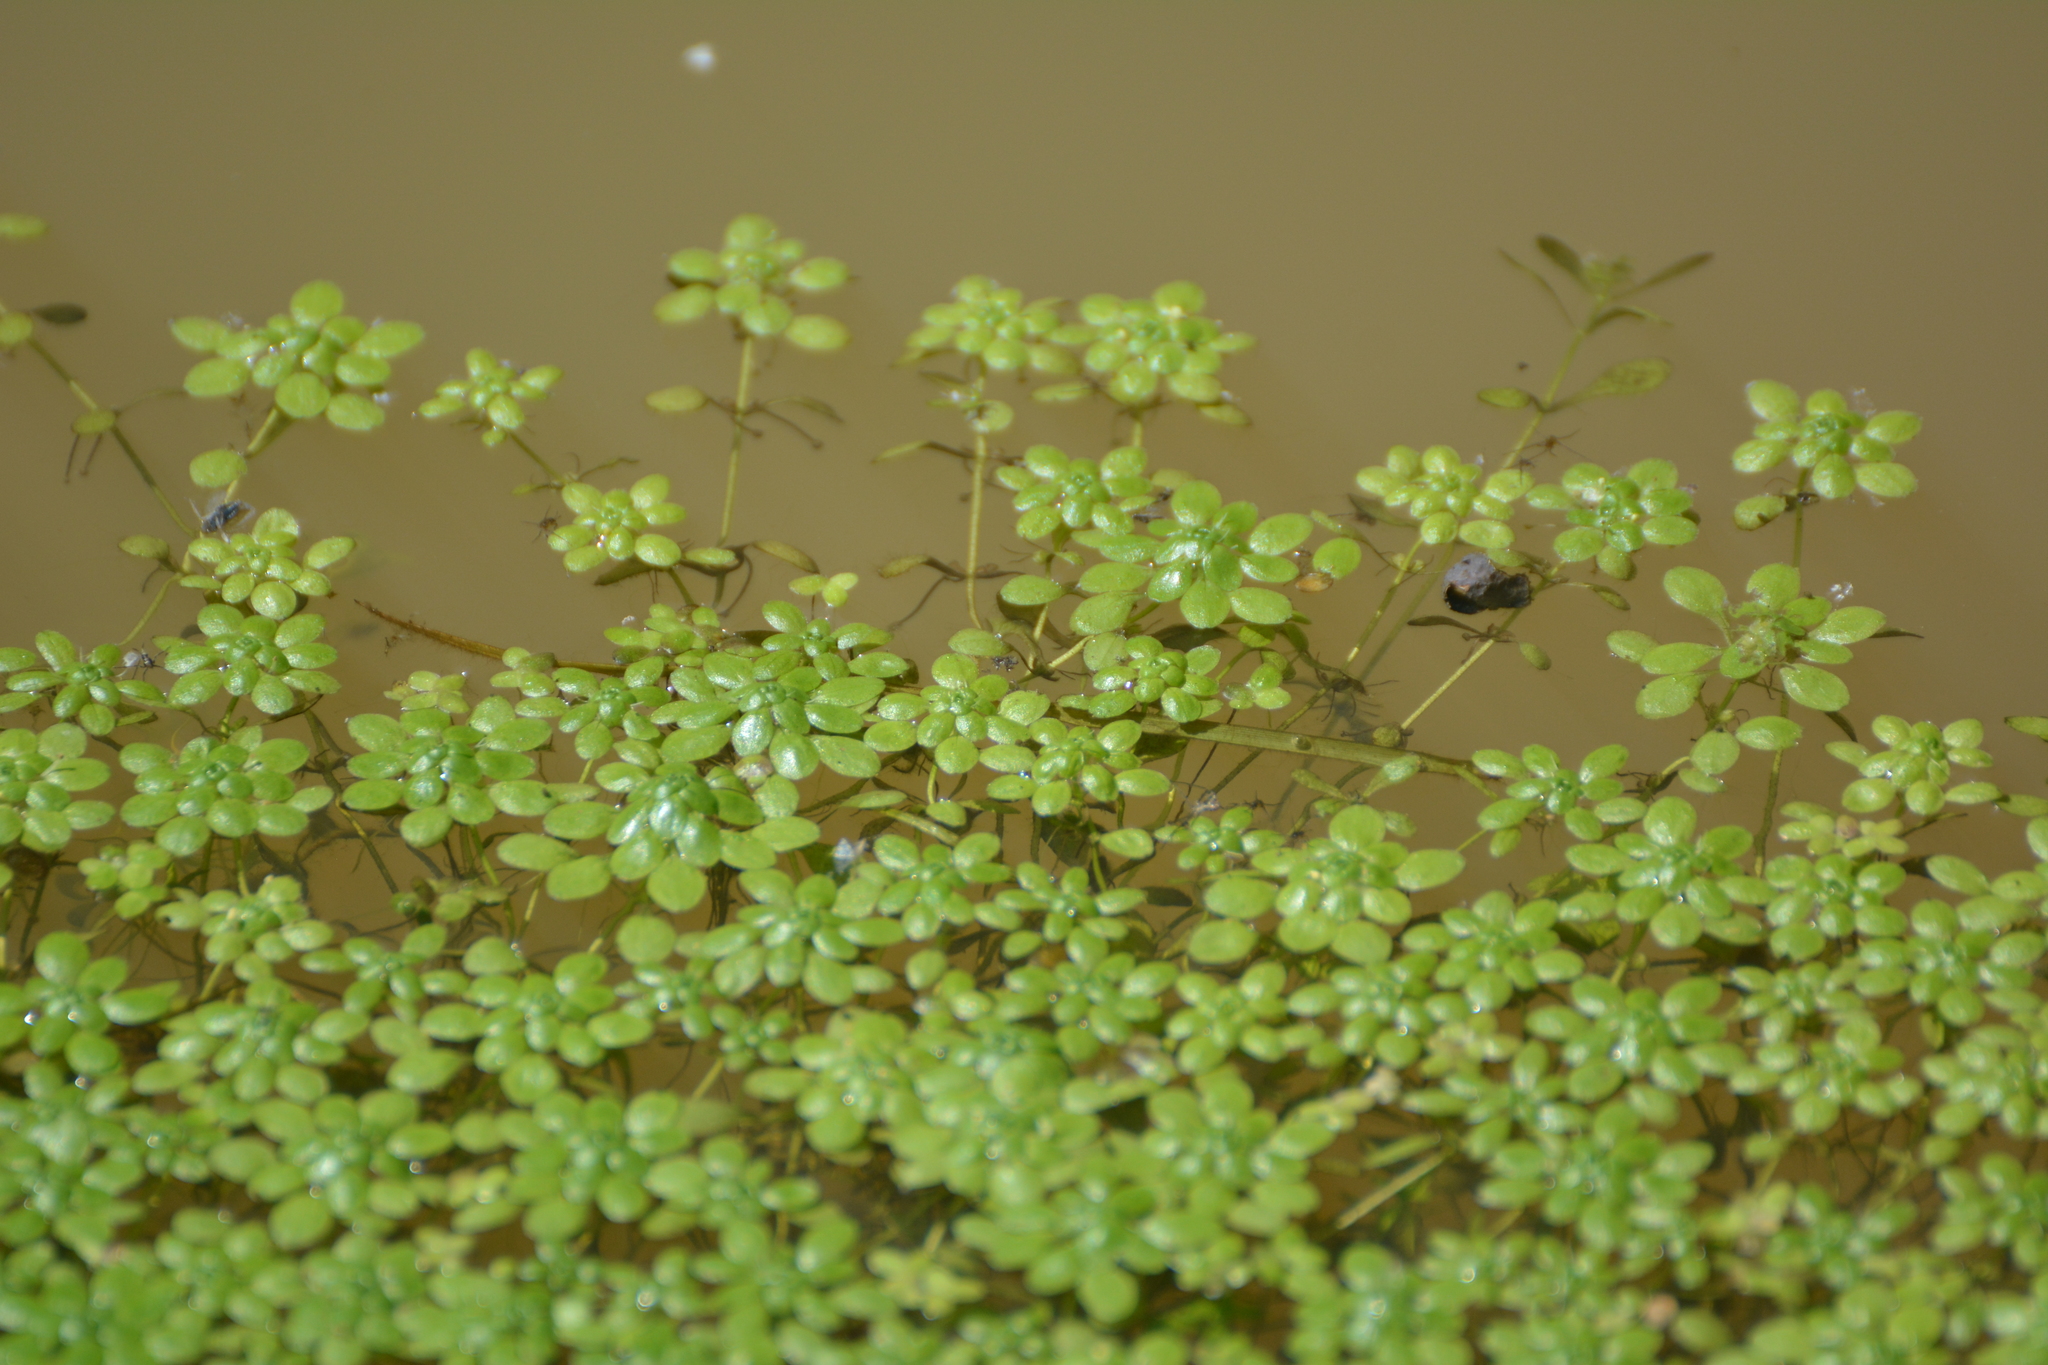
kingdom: Plantae
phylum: Tracheophyta
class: Magnoliopsida
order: Lamiales
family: Plantaginaceae
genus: Callitriche
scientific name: Callitriche
